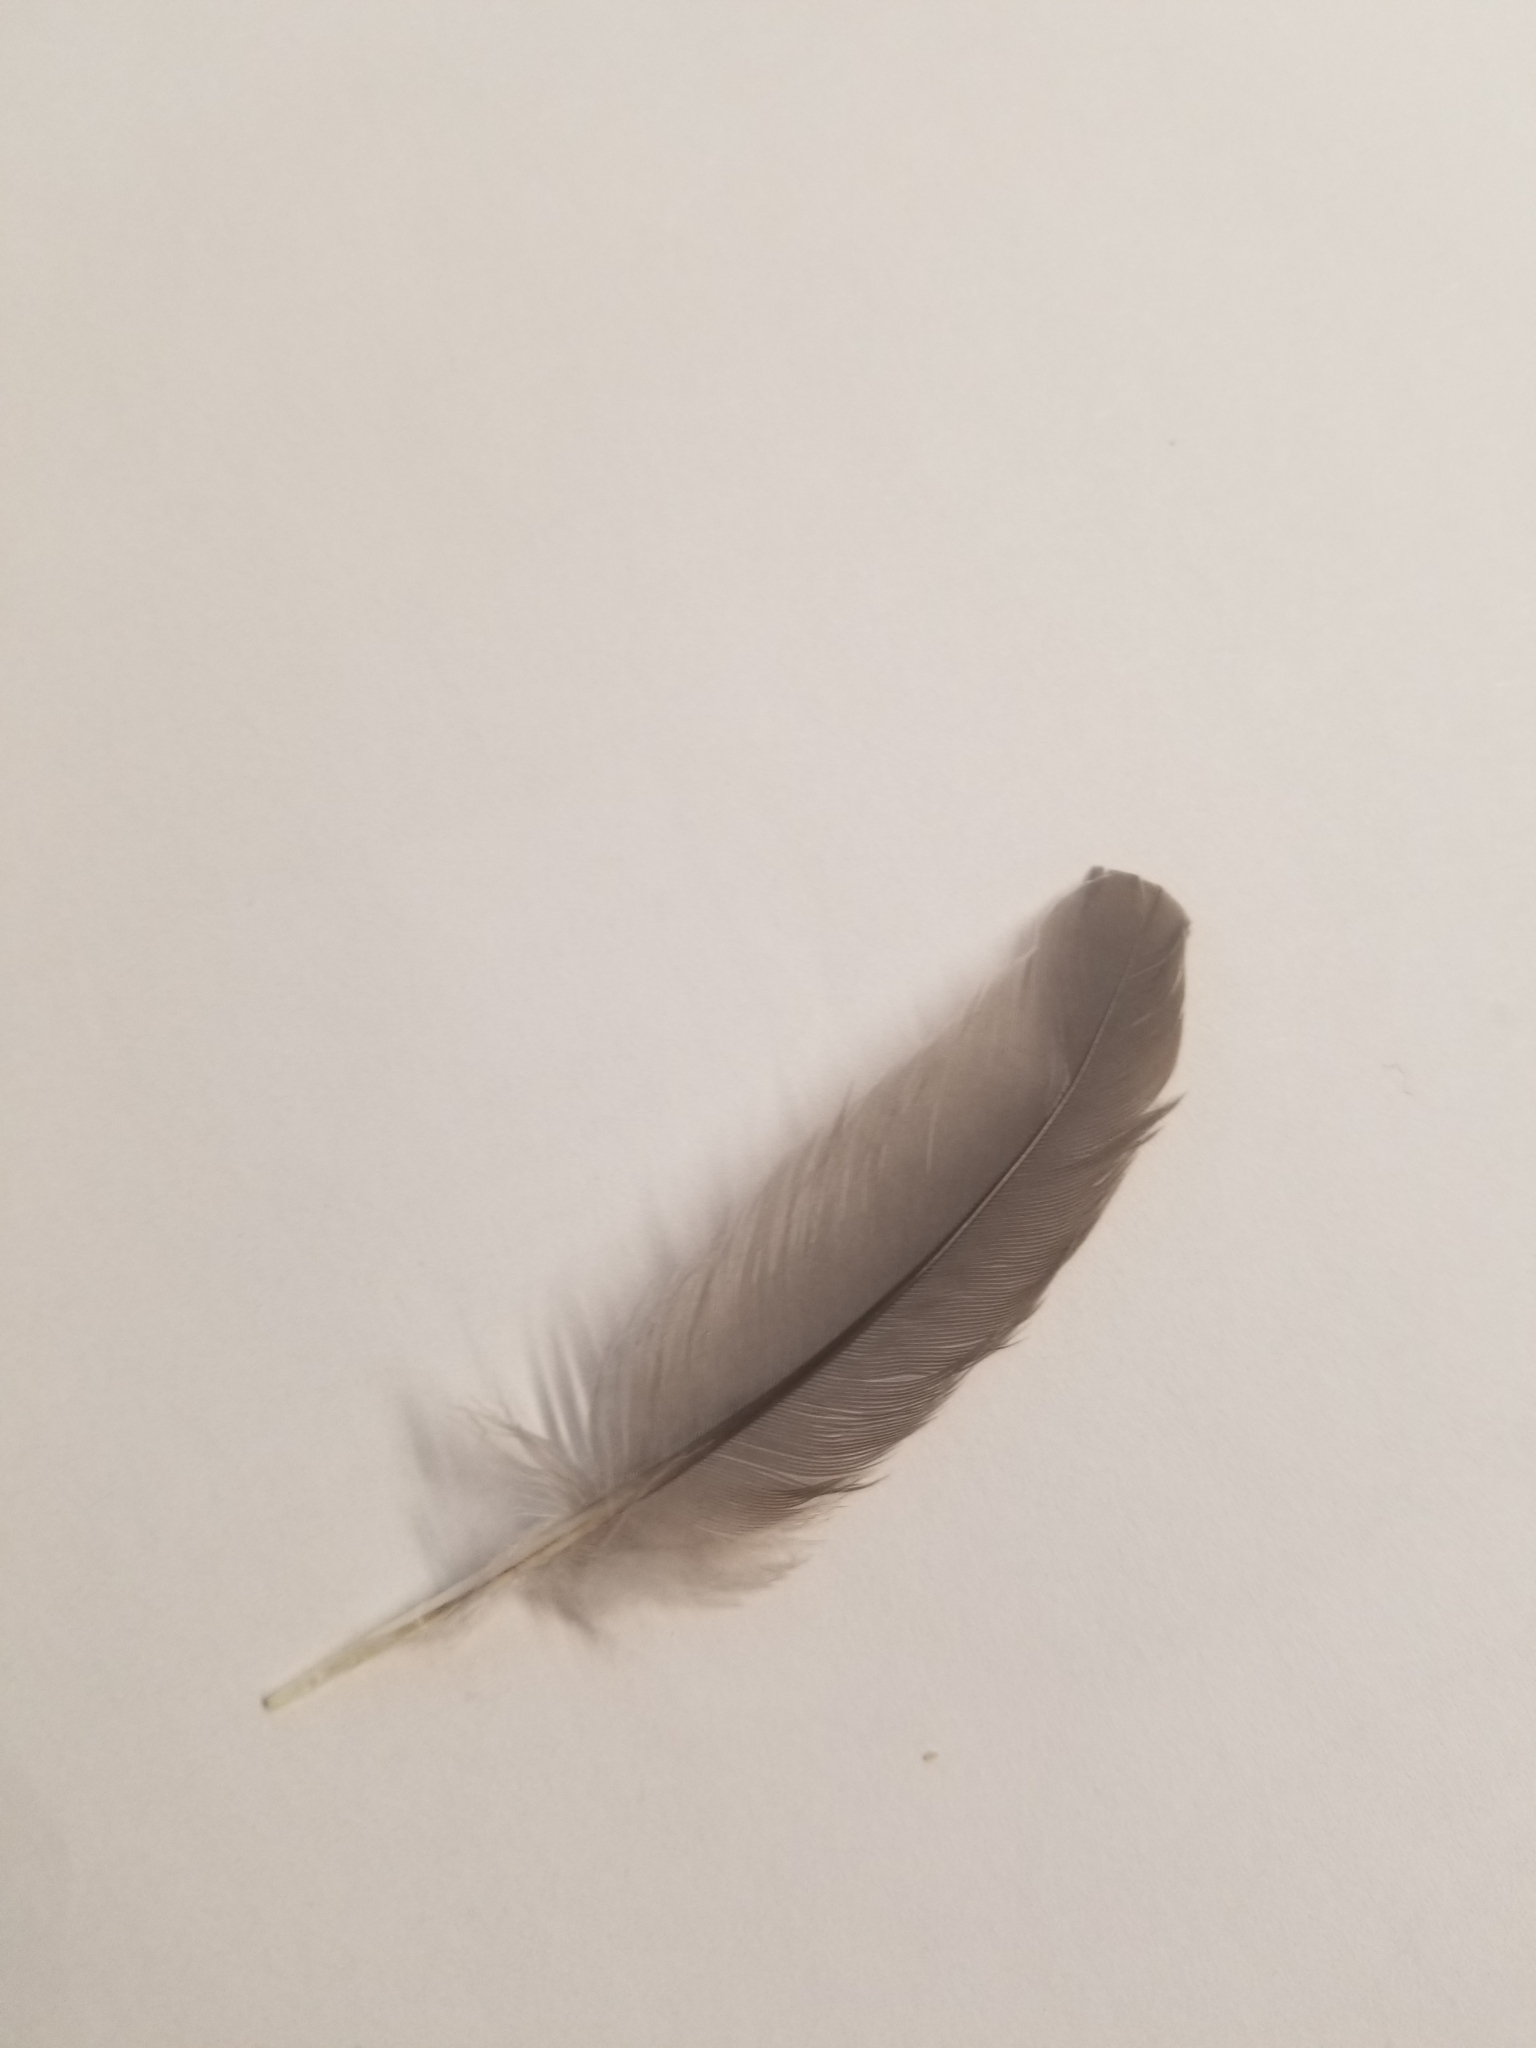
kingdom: Animalia
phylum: Chordata
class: Aves
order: Columbiformes
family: Columbidae
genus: Zenaida
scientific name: Zenaida macroura
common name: Mourning dove
